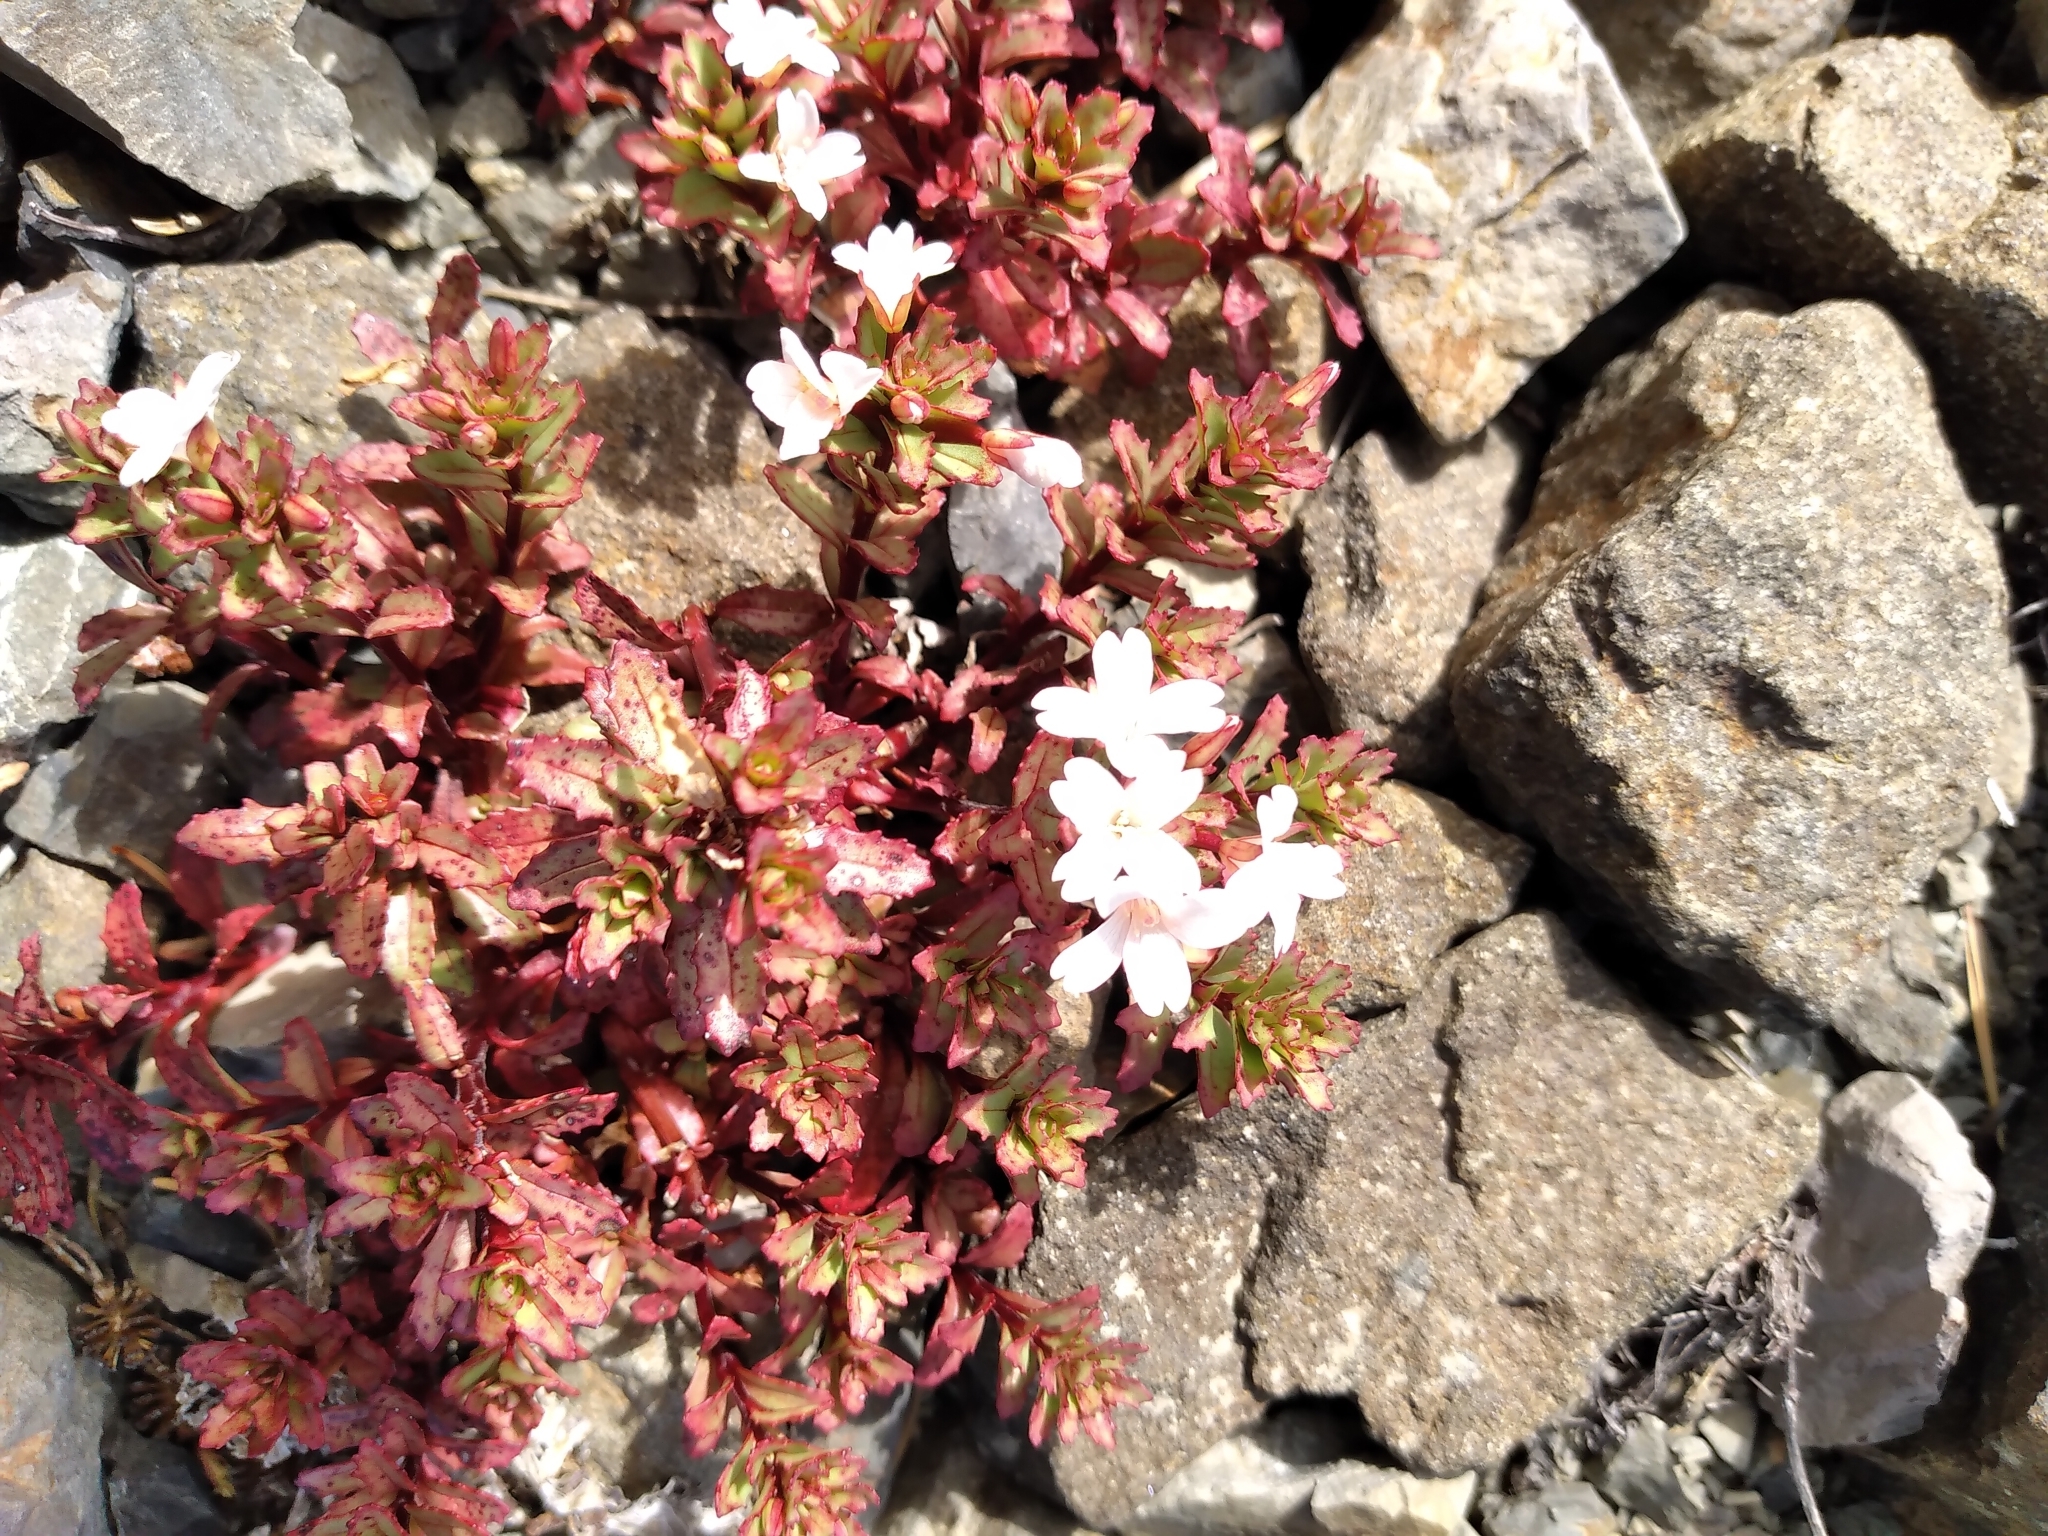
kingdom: Plantae
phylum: Tracheophyta
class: Magnoliopsida
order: Myrtales
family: Onagraceae
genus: Epilobium
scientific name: Epilobium pycnostachyum
